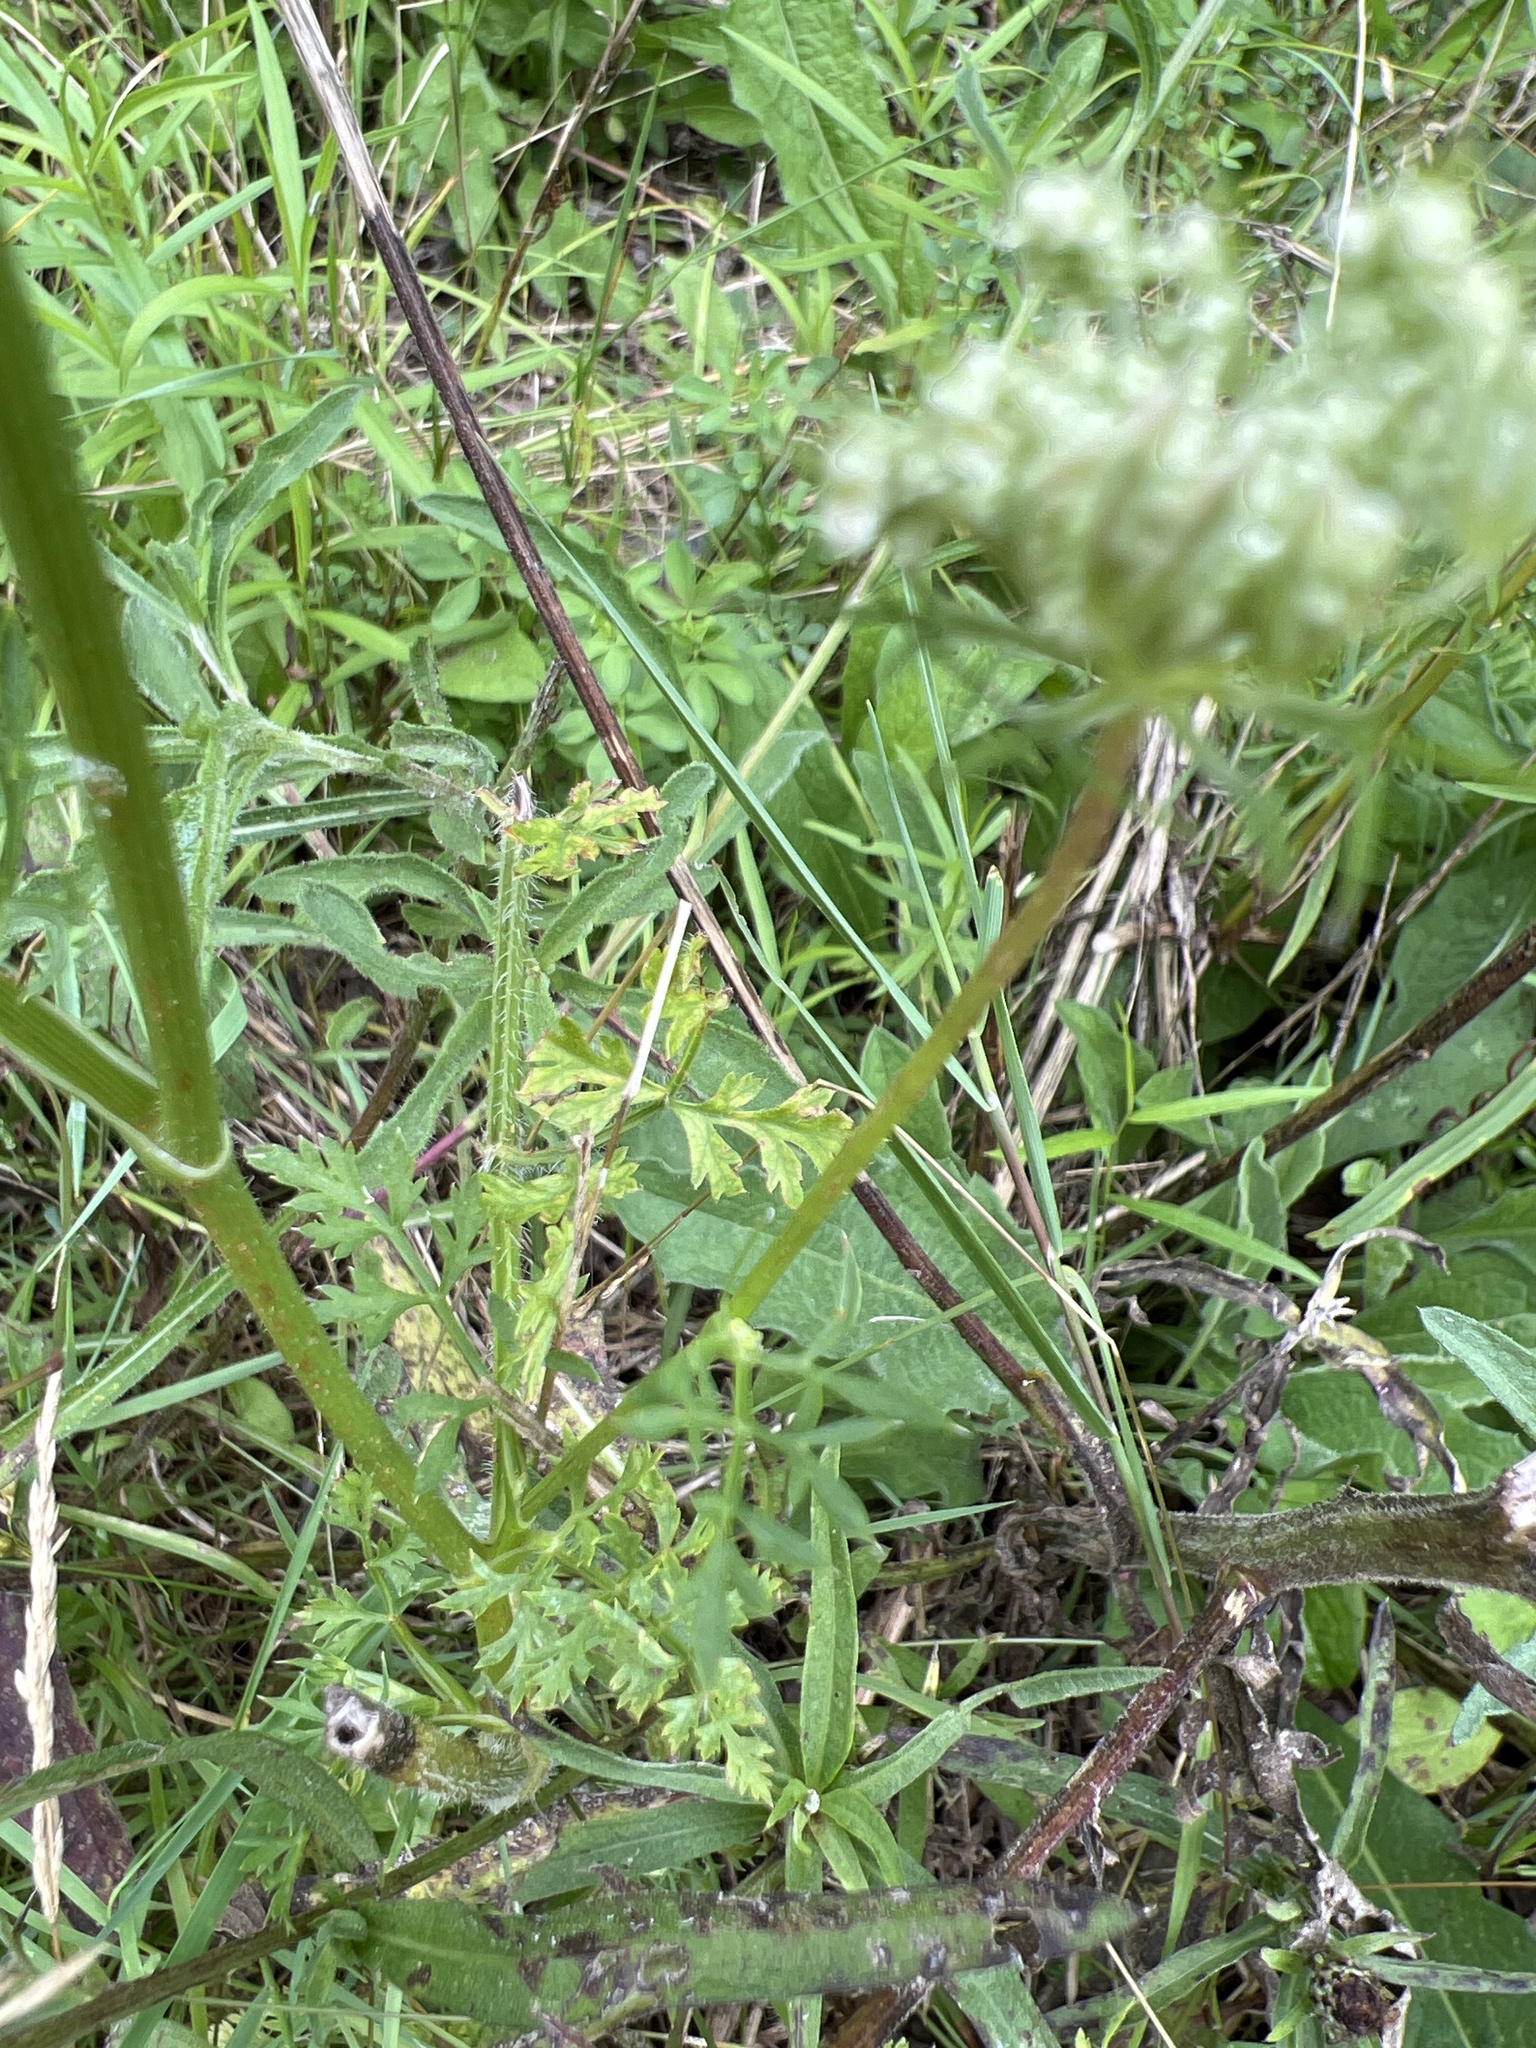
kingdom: Plantae
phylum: Tracheophyta
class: Magnoliopsida
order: Apiales
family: Apiaceae
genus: Daucus
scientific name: Daucus carota
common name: Wild carrot
